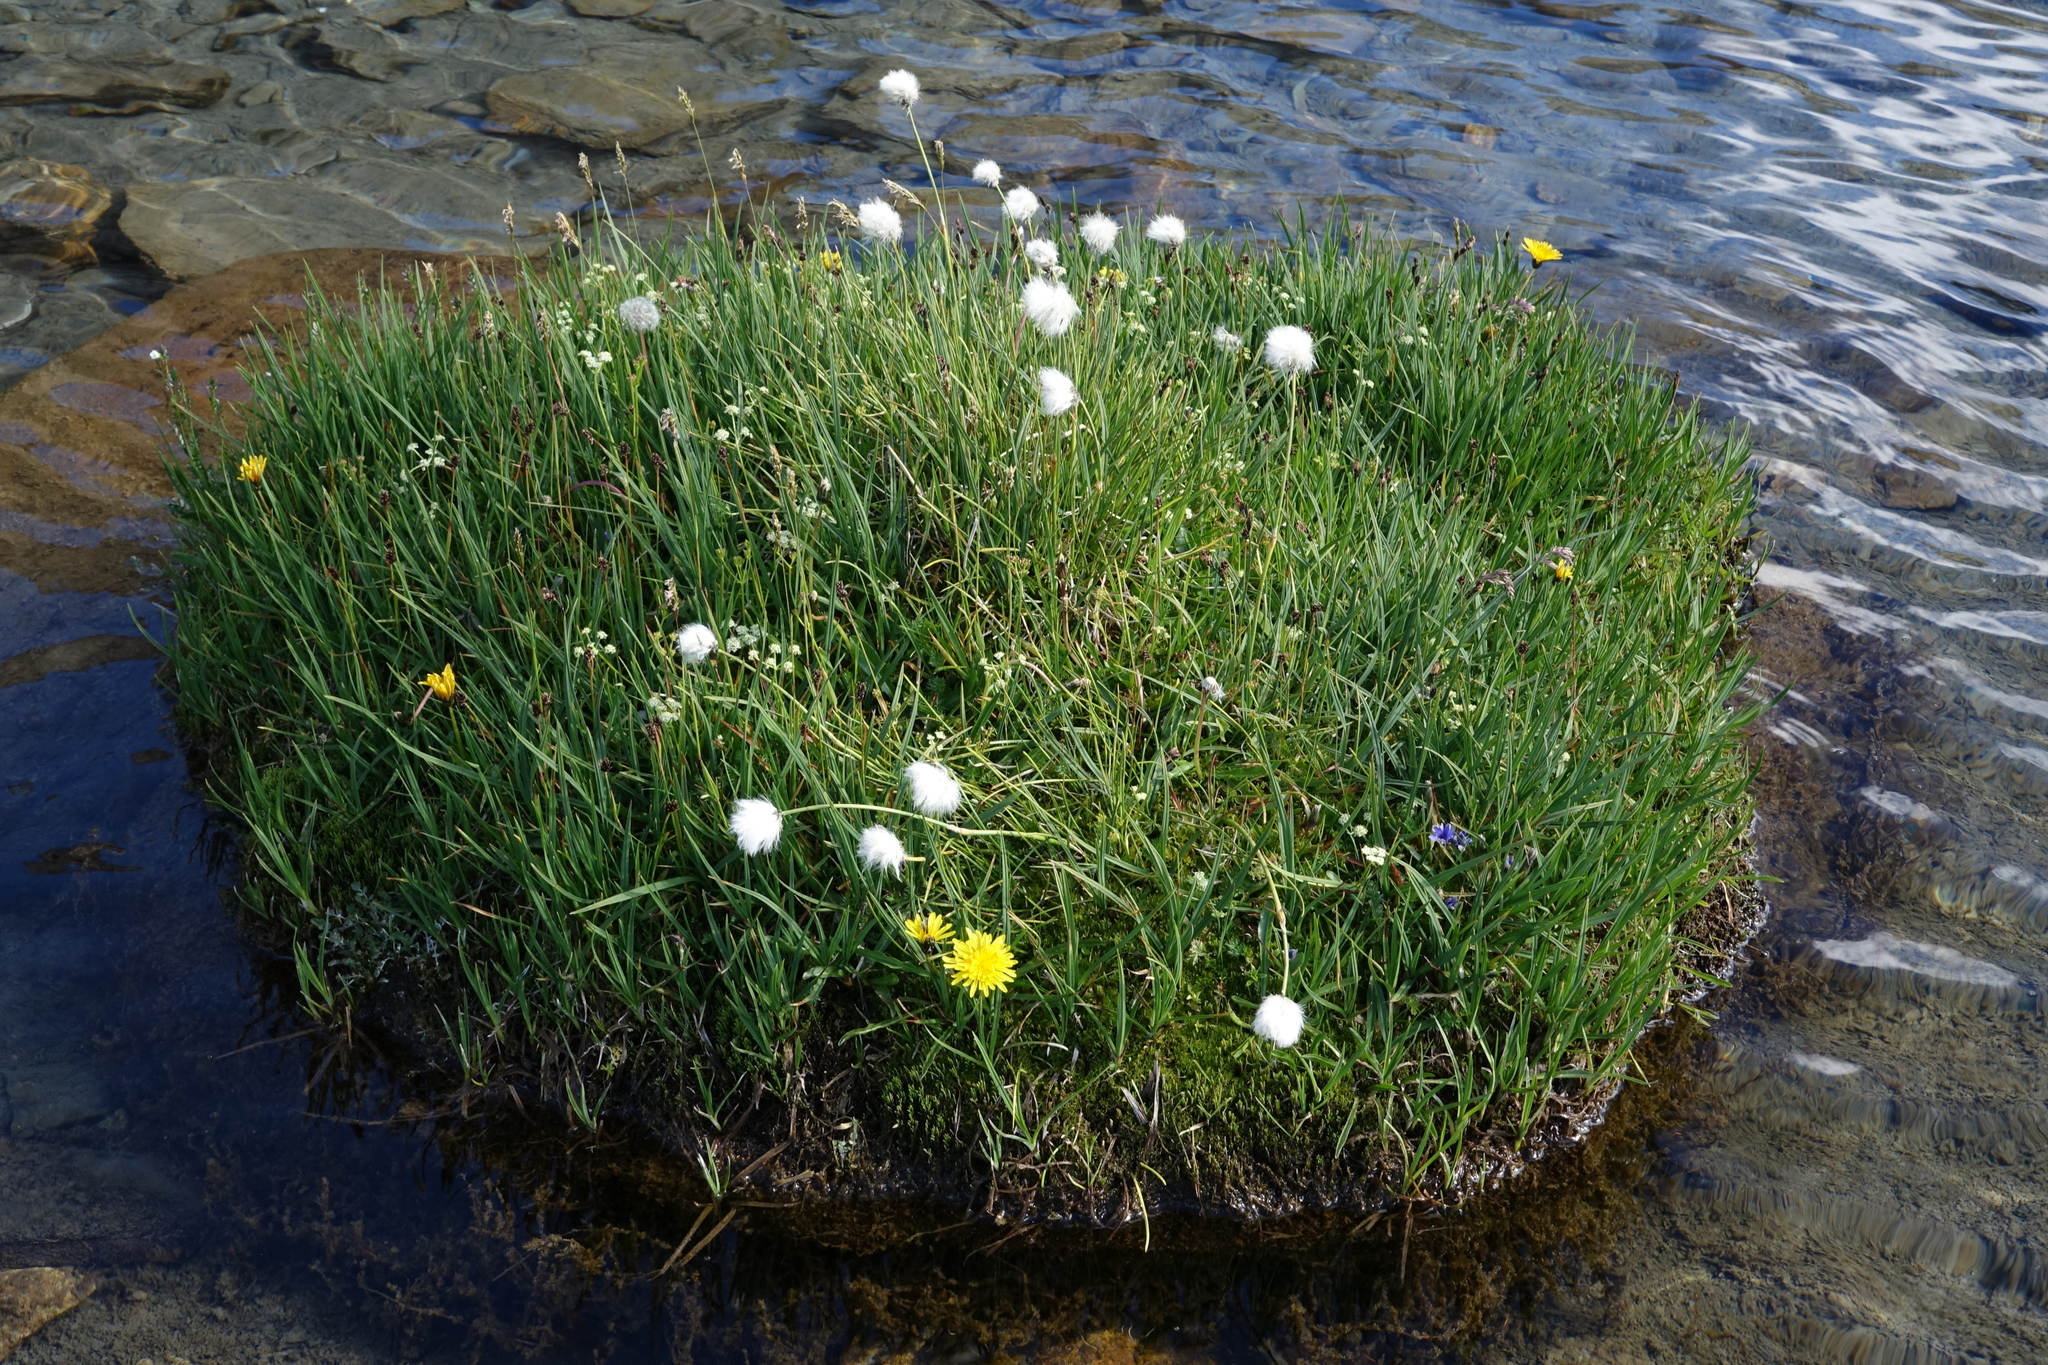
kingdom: Plantae
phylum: Tracheophyta
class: Liliopsida
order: Poales
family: Cyperaceae
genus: Eriophorum
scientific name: Eriophorum vaginatum
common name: Hare's-tail cottongrass
